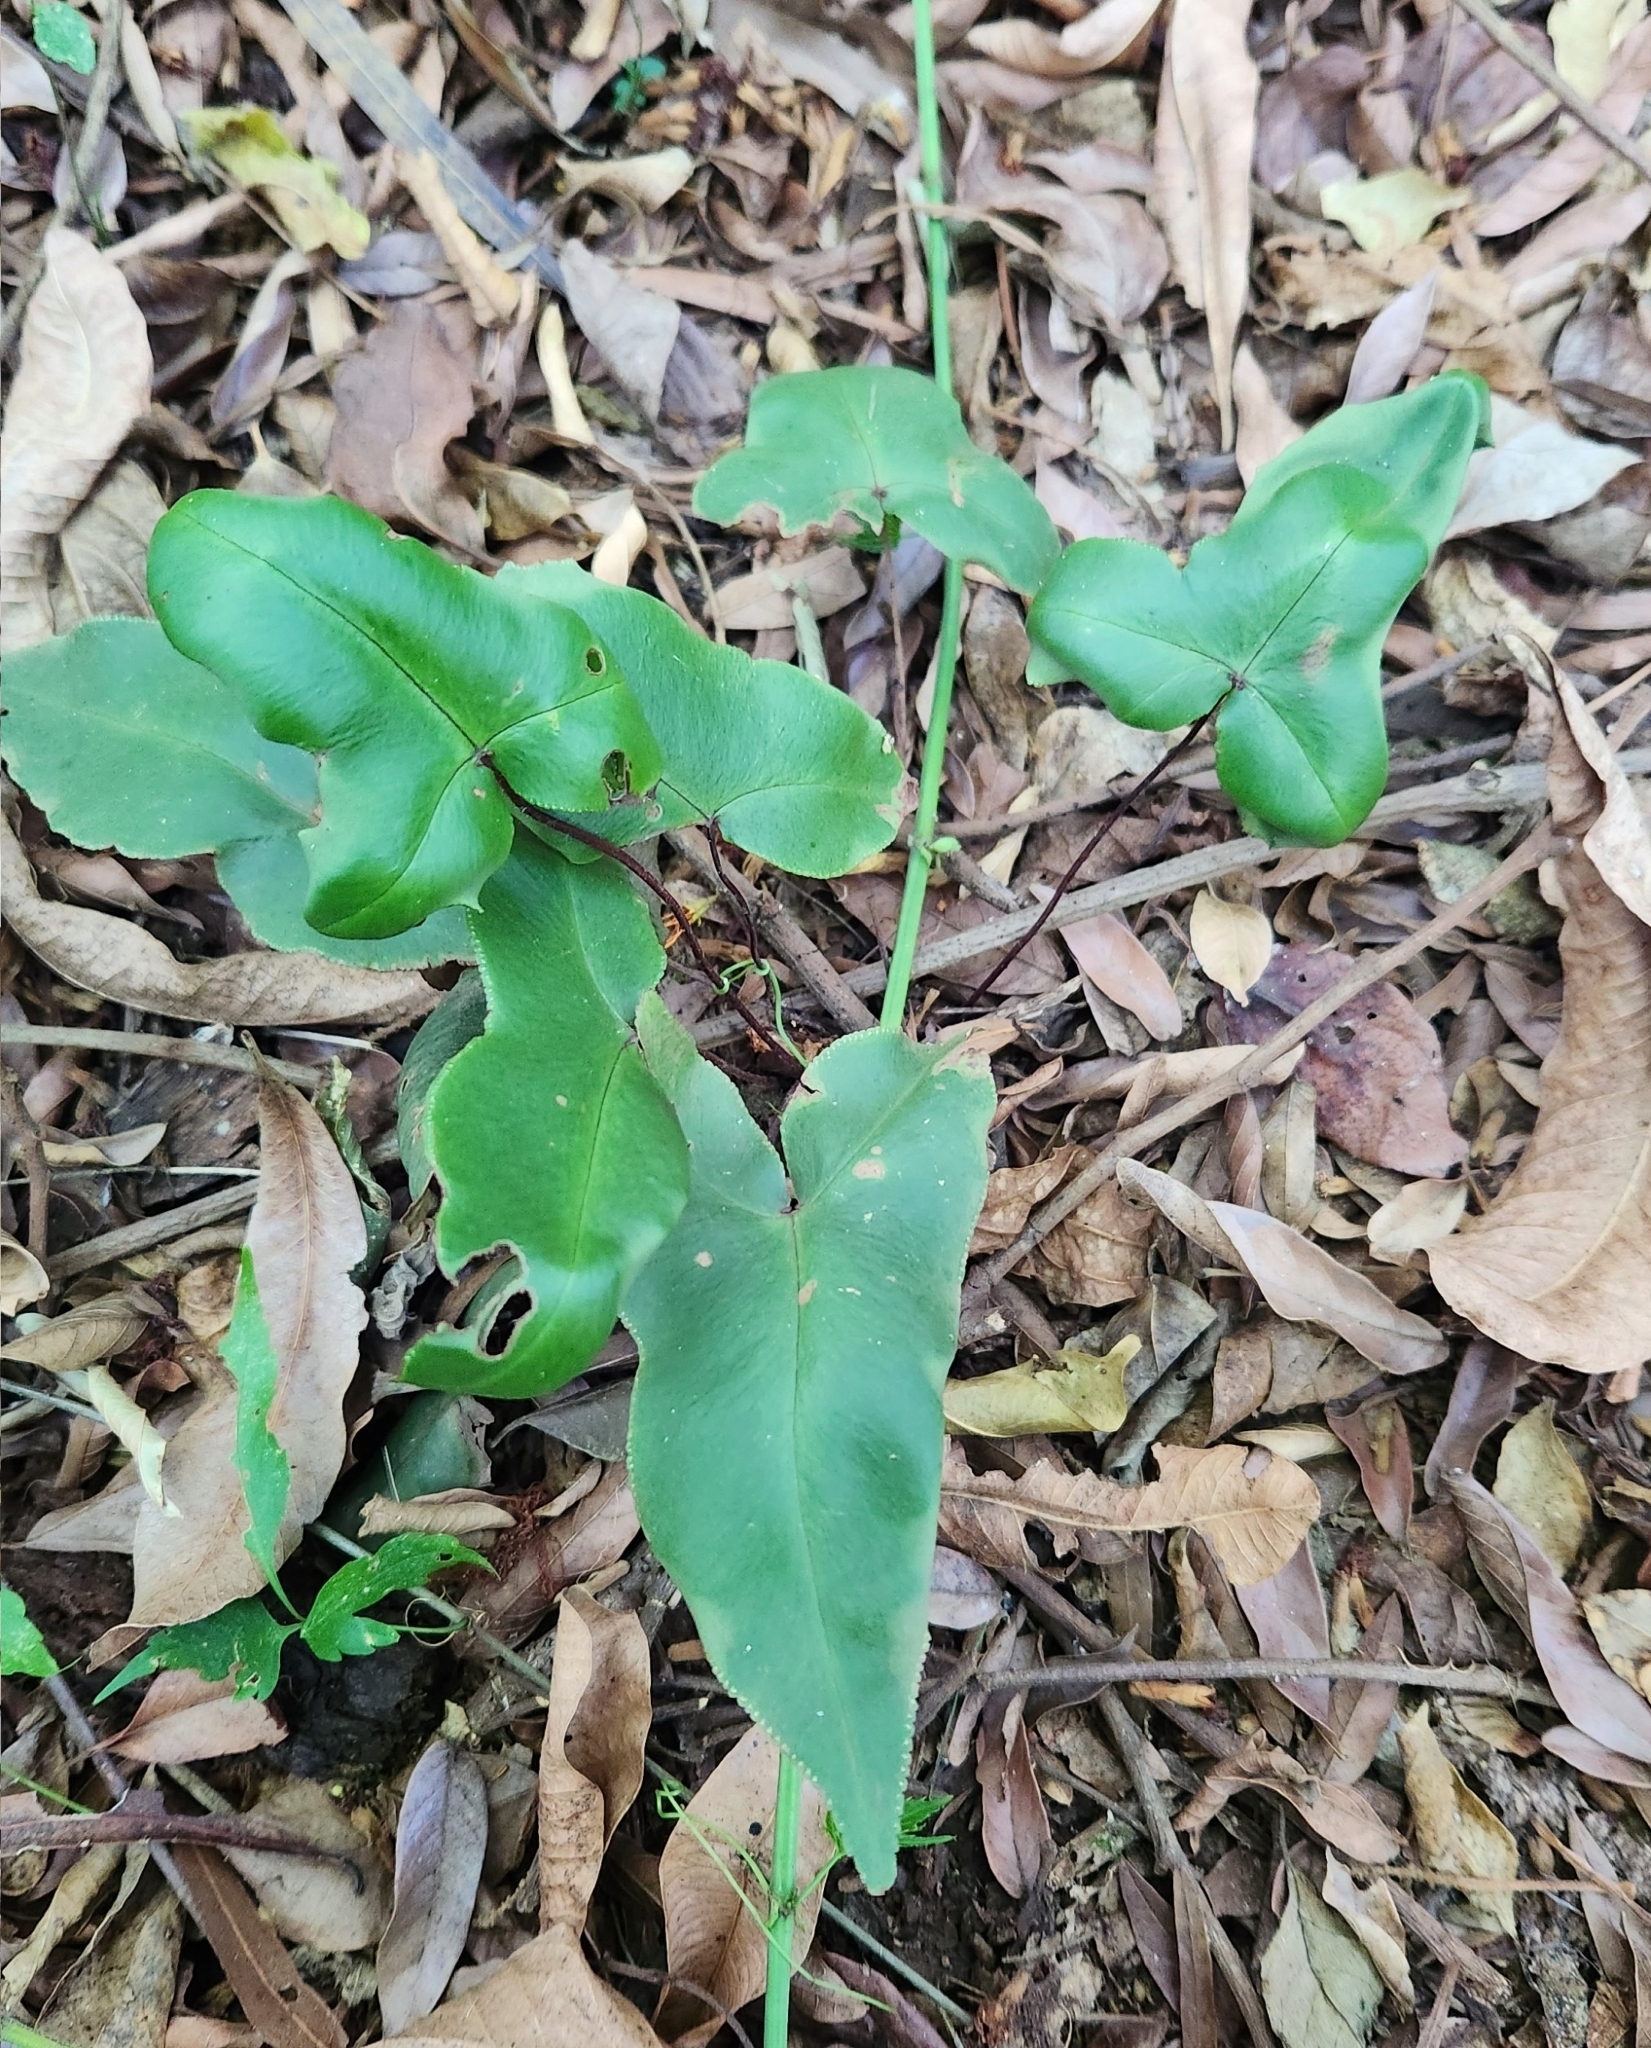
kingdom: Plantae
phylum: Tracheophyta
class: Polypodiopsida
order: Polypodiales
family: Pteridaceae
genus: Doryopteris
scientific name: Doryopteris nobilis
